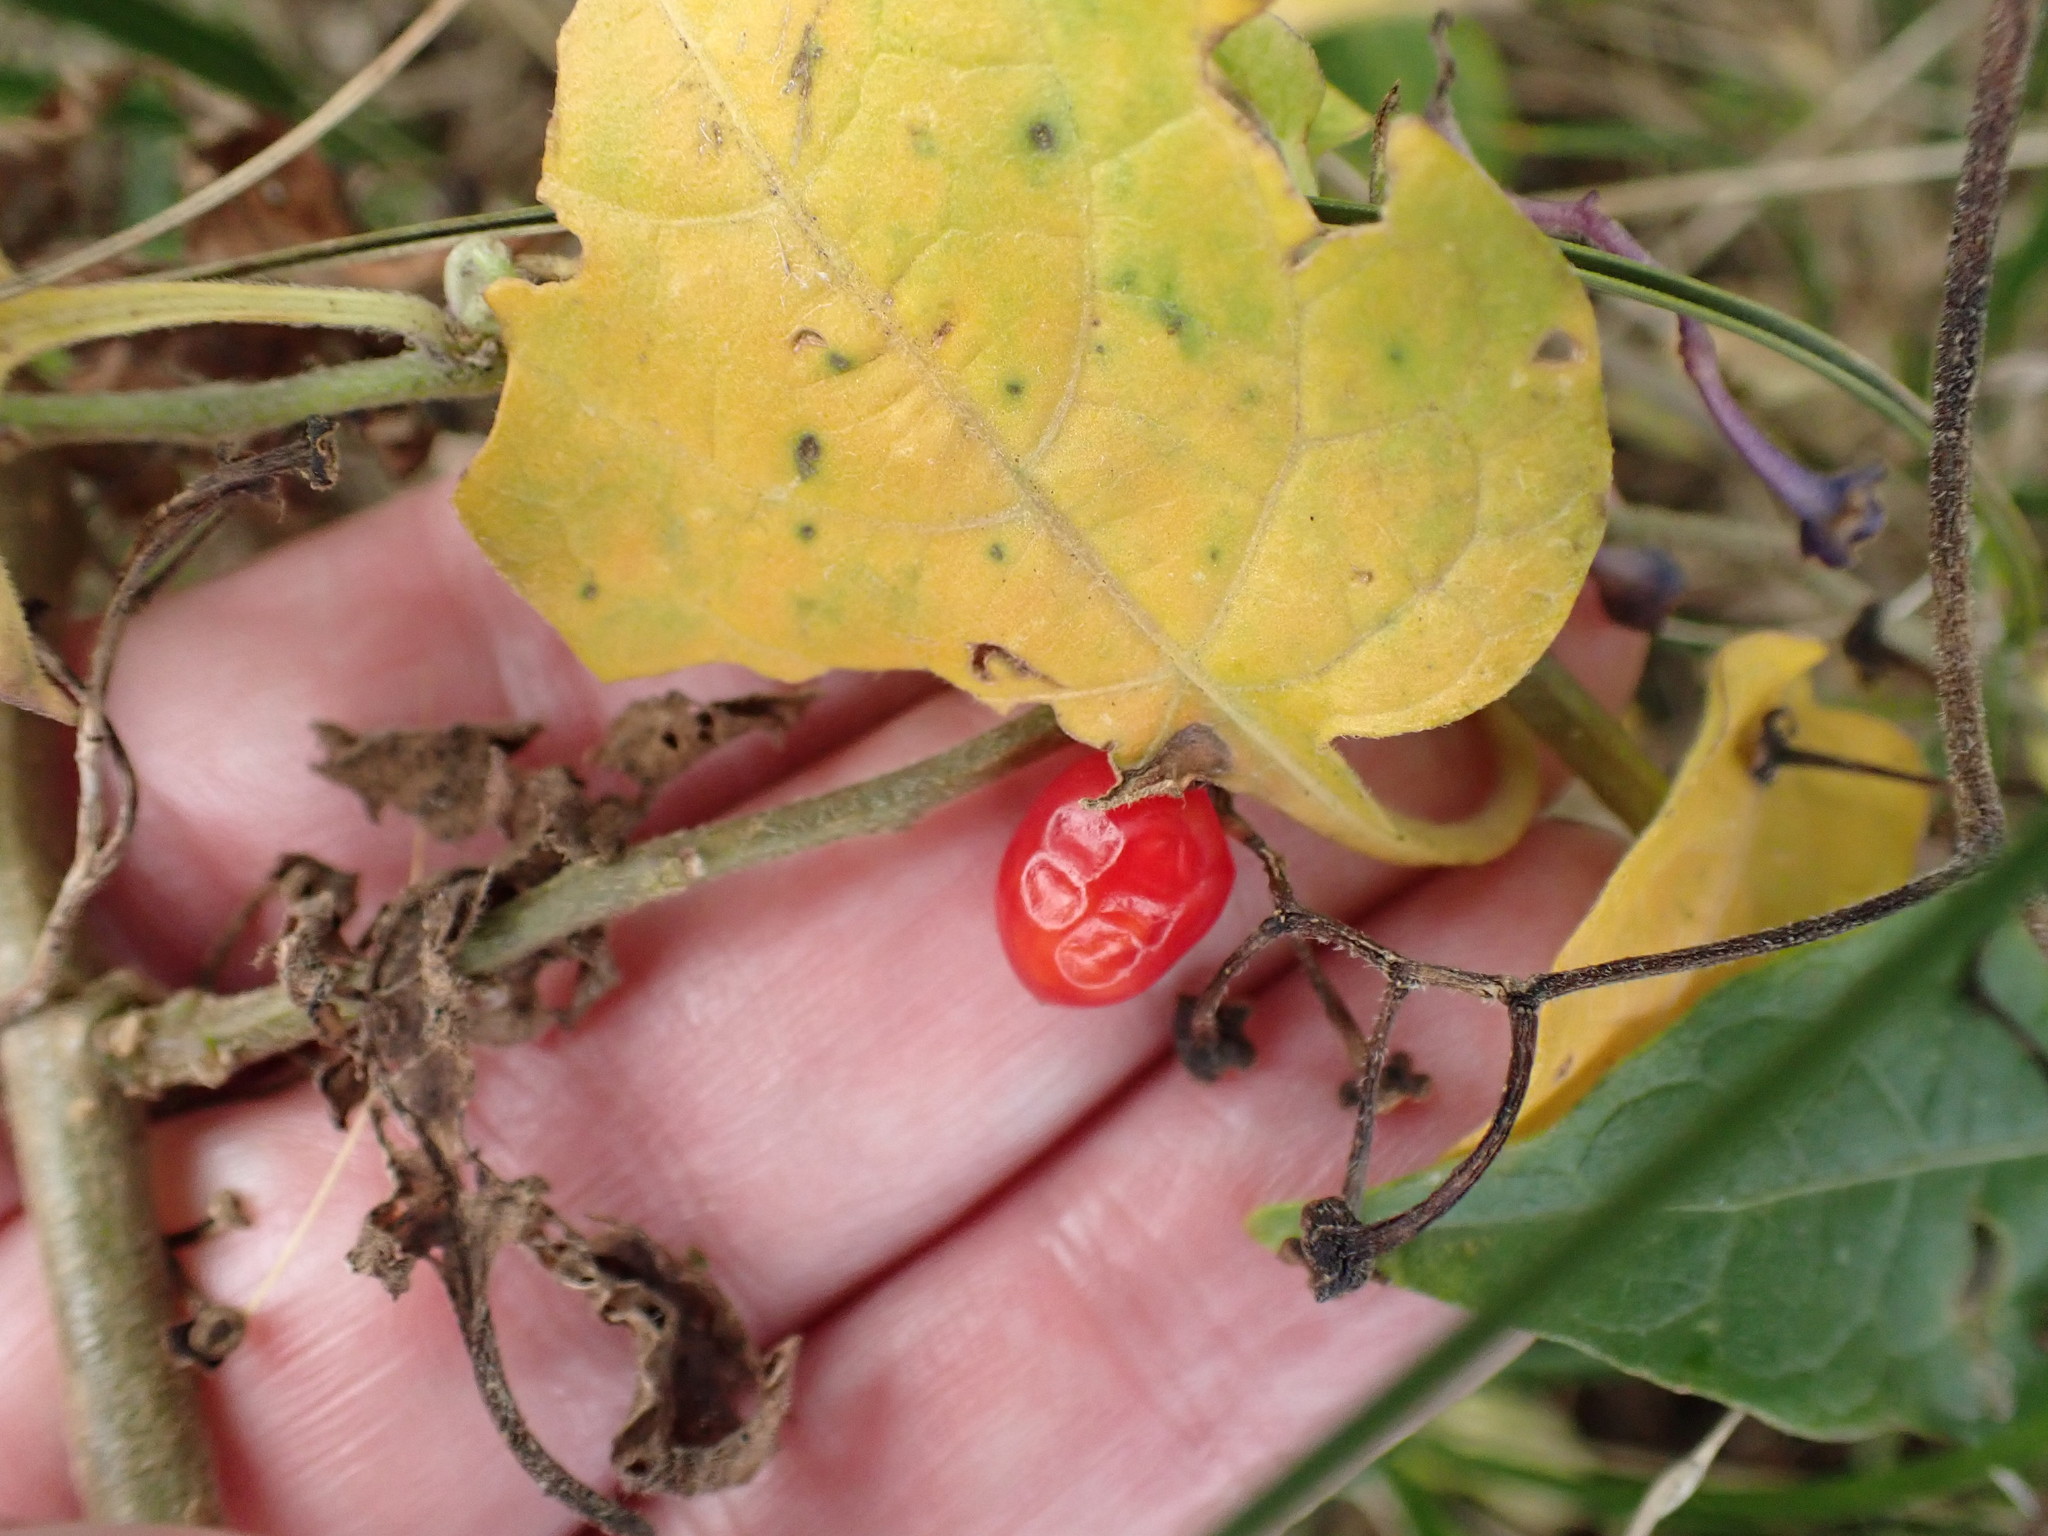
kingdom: Plantae
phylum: Tracheophyta
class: Magnoliopsida
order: Solanales
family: Solanaceae
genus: Solanum
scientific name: Solanum dulcamara
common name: Climbing nightshade
